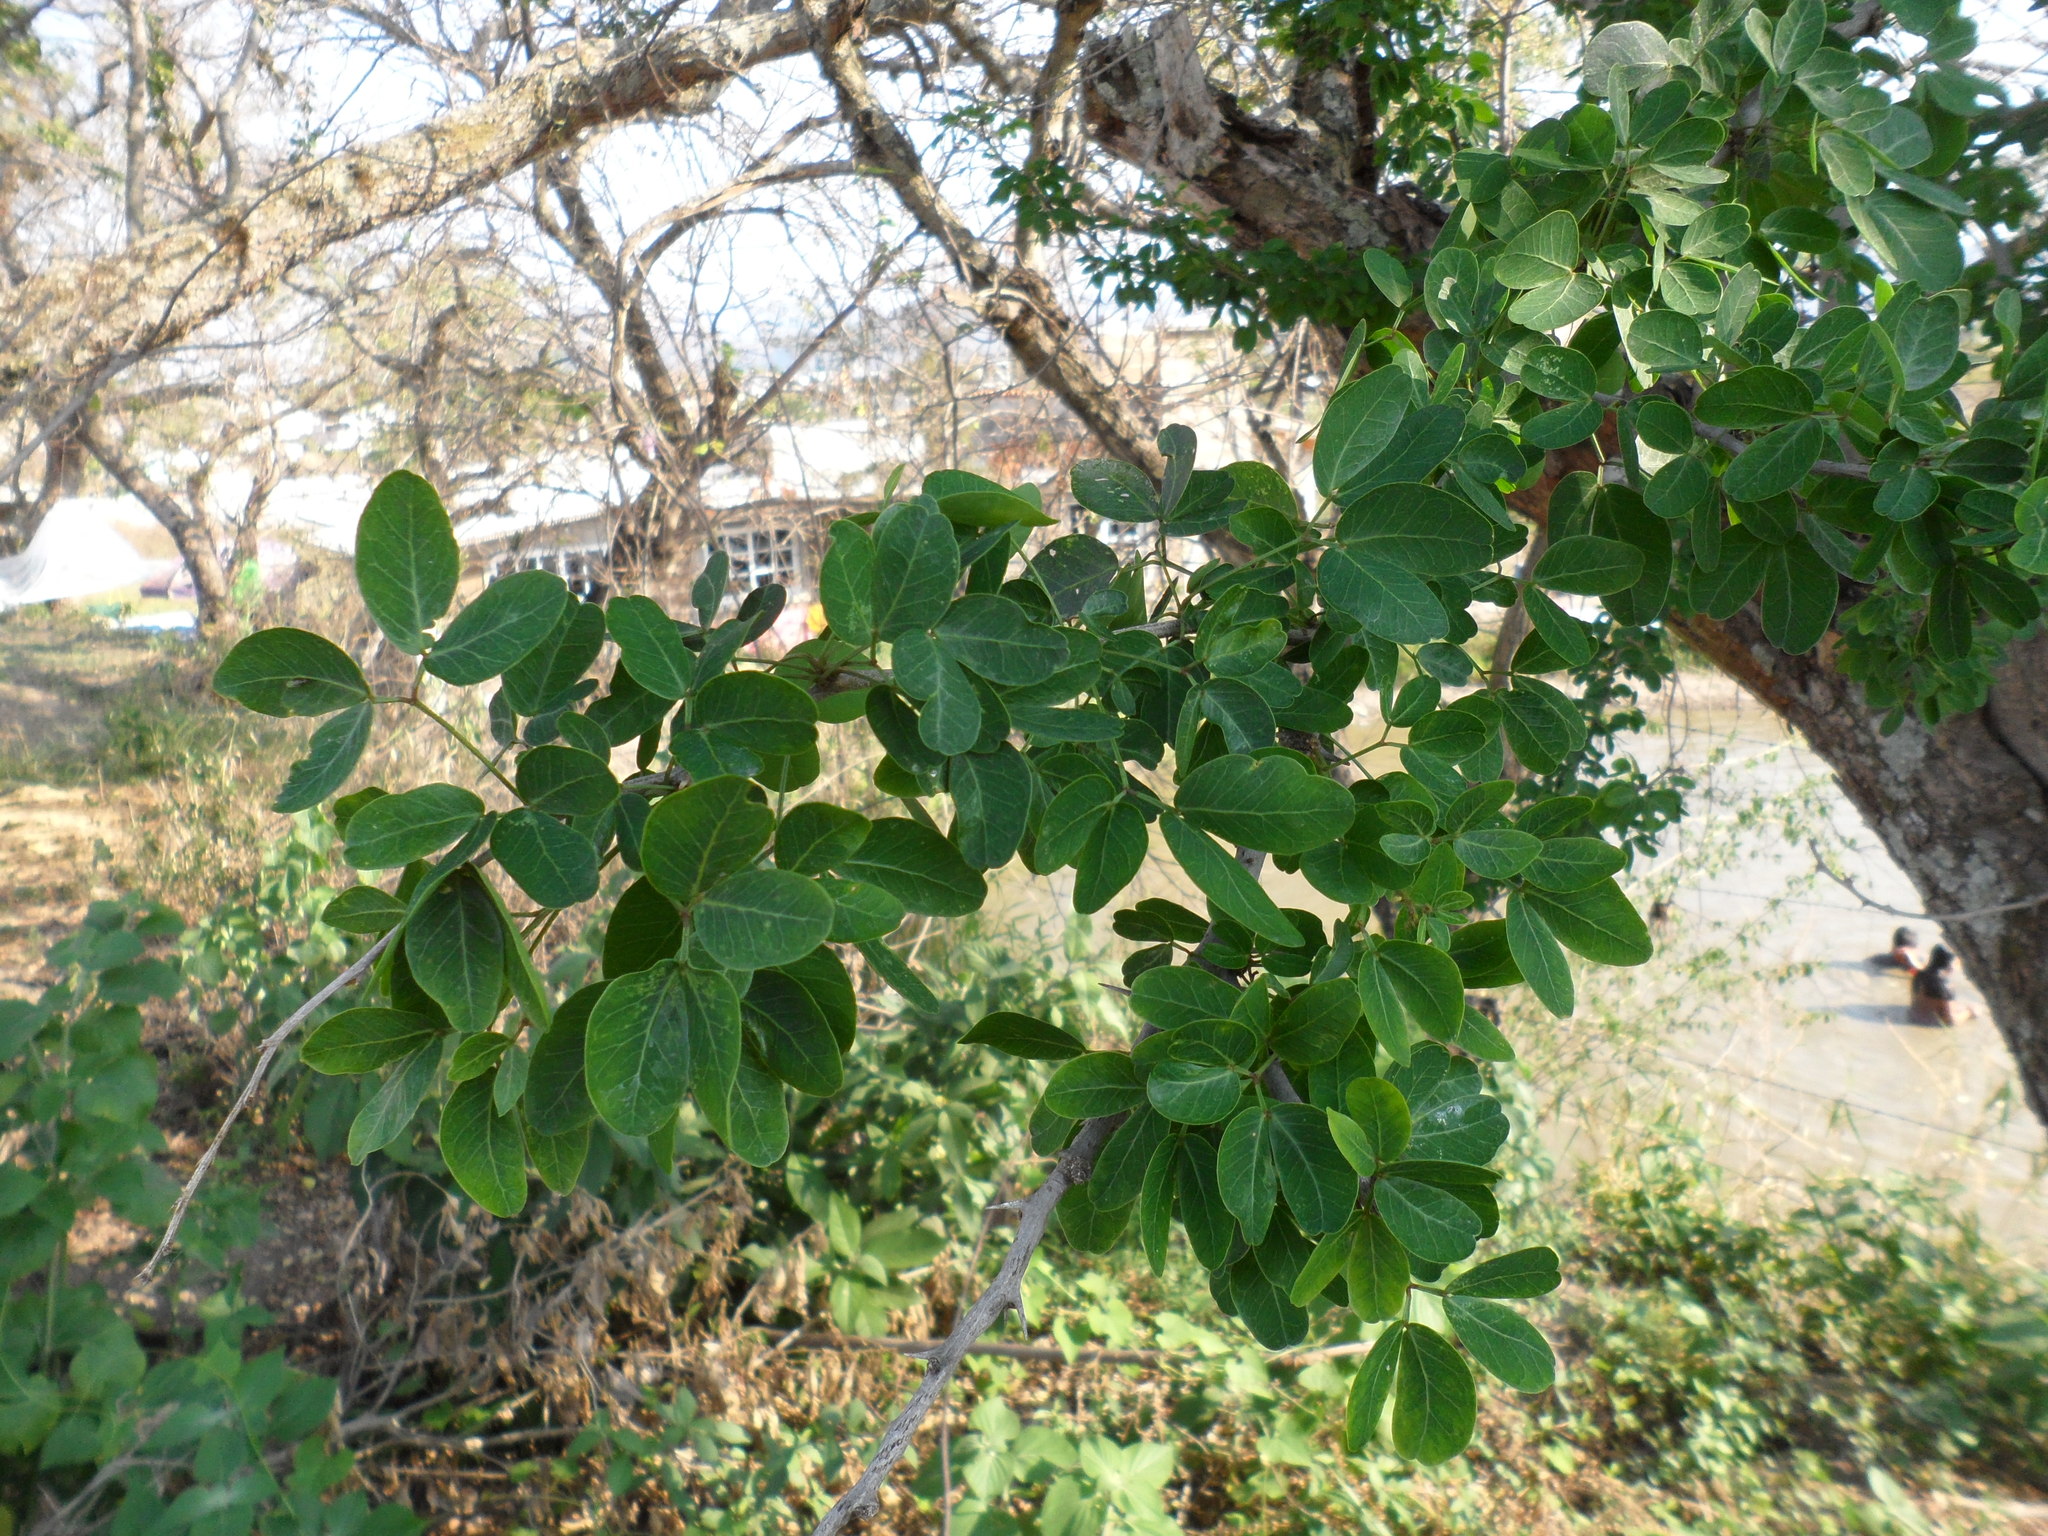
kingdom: Plantae
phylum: Tracheophyta
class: Magnoliopsida
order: Fabales
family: Fabaceae
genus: Pithecellobium
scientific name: Pithecellobium dulce
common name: Monkeypod
